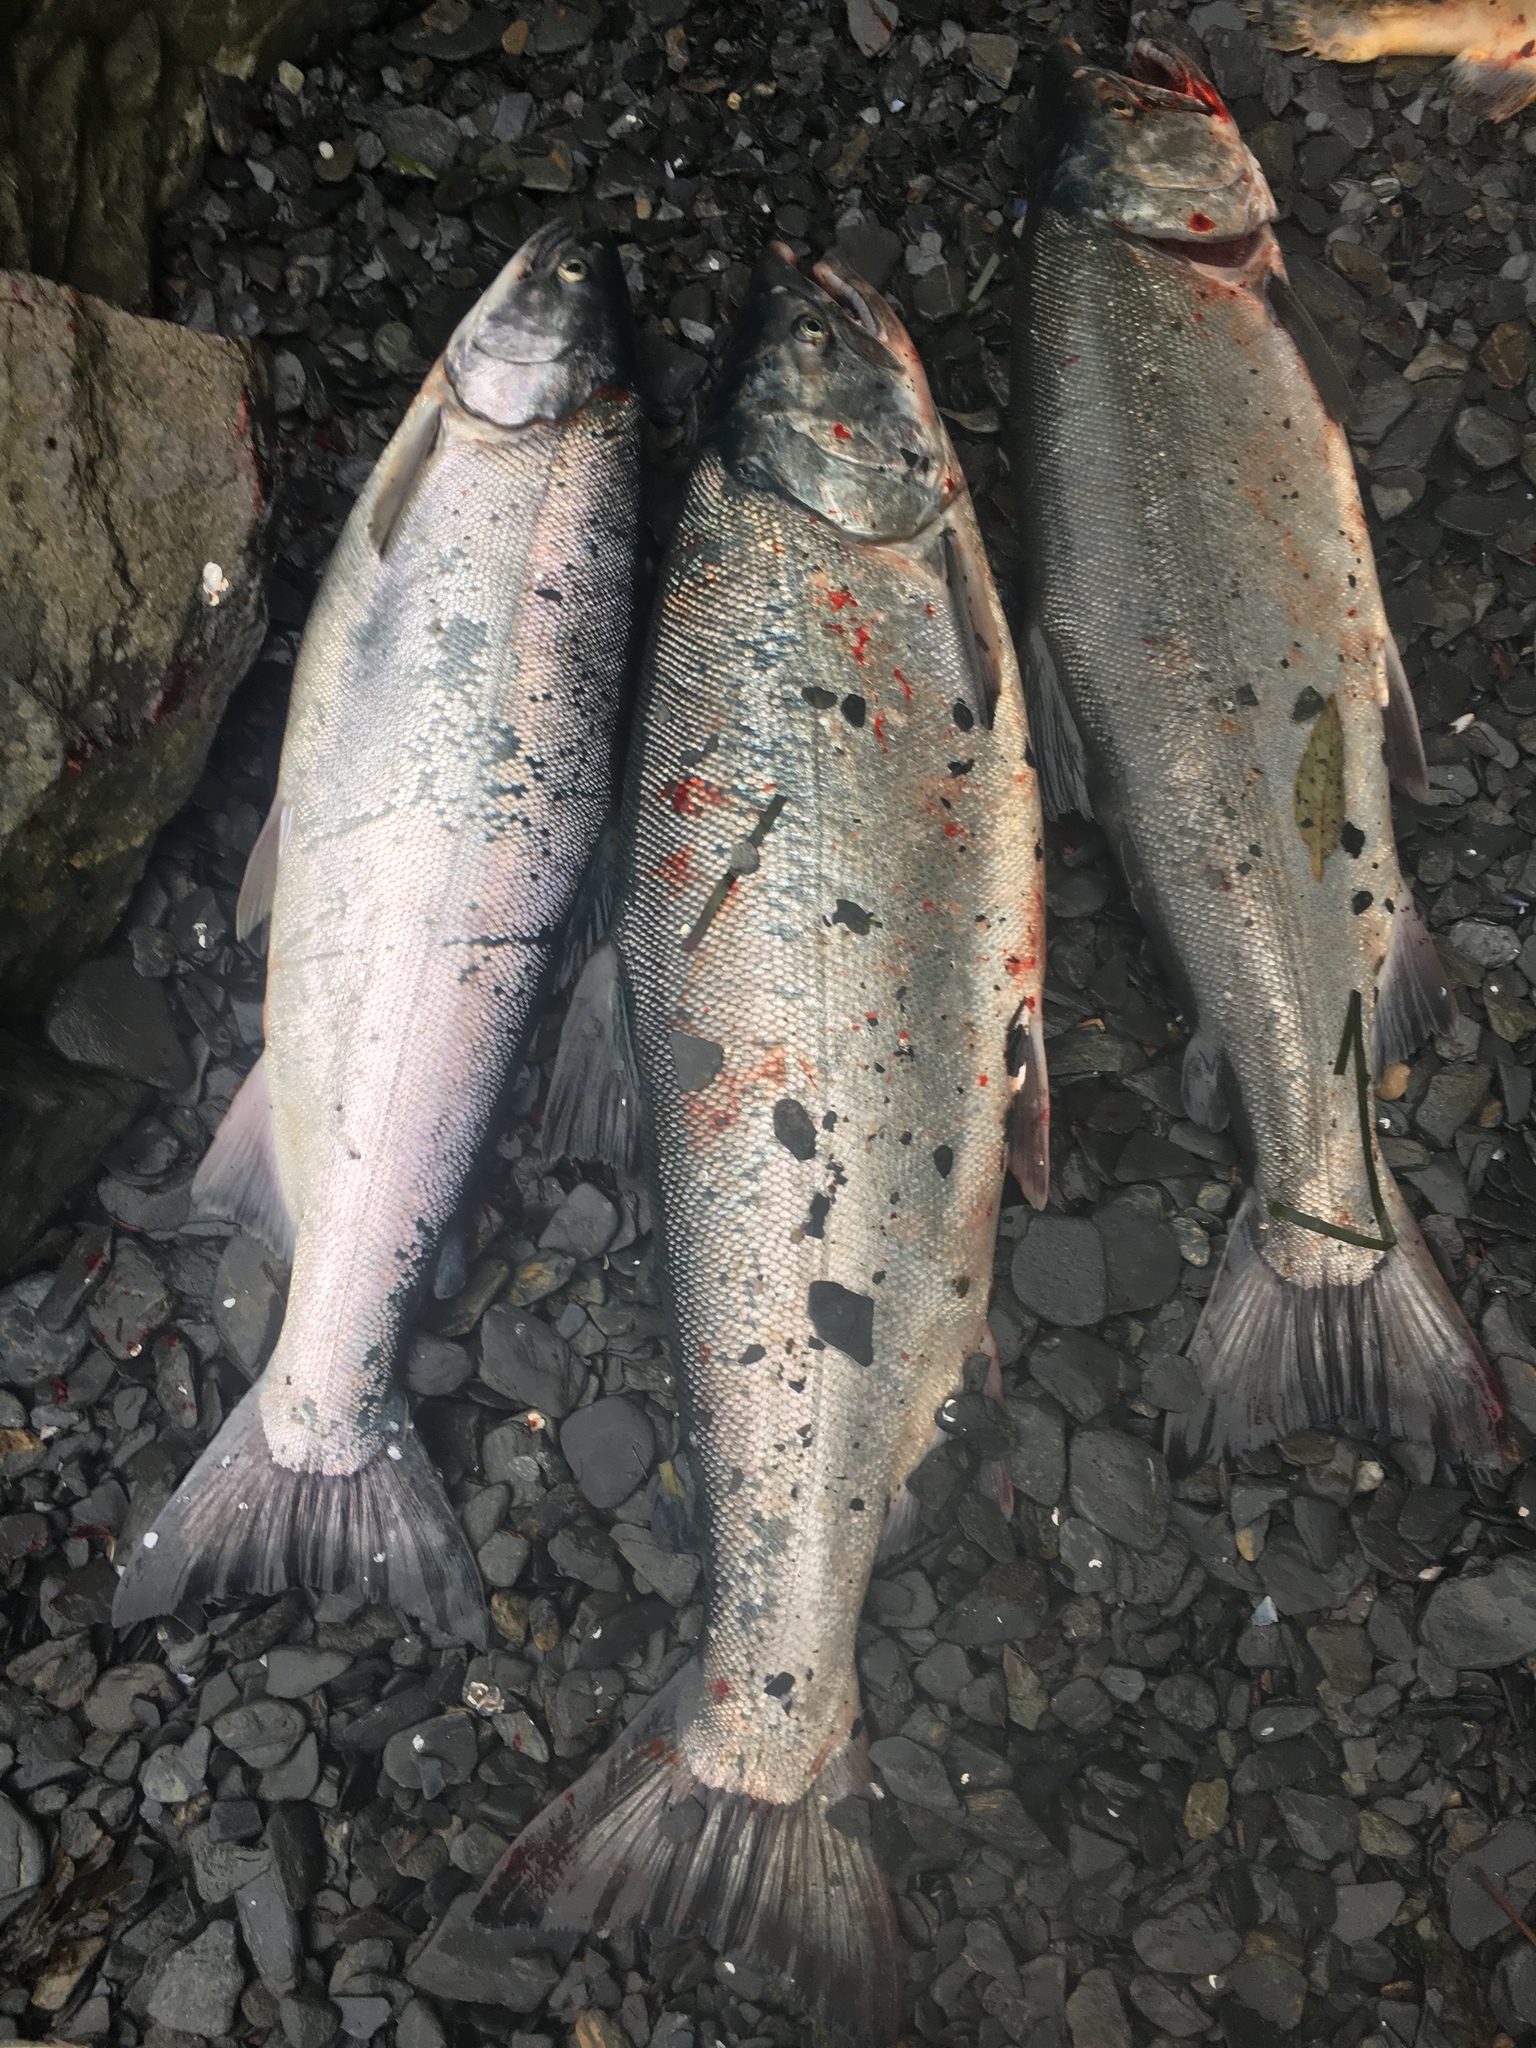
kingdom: Animalia
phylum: Chordata
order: Salmoniformes
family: Salmonidae
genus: Oncorhynchus
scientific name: Oncorhynchus kisutch
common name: Coho salmon
